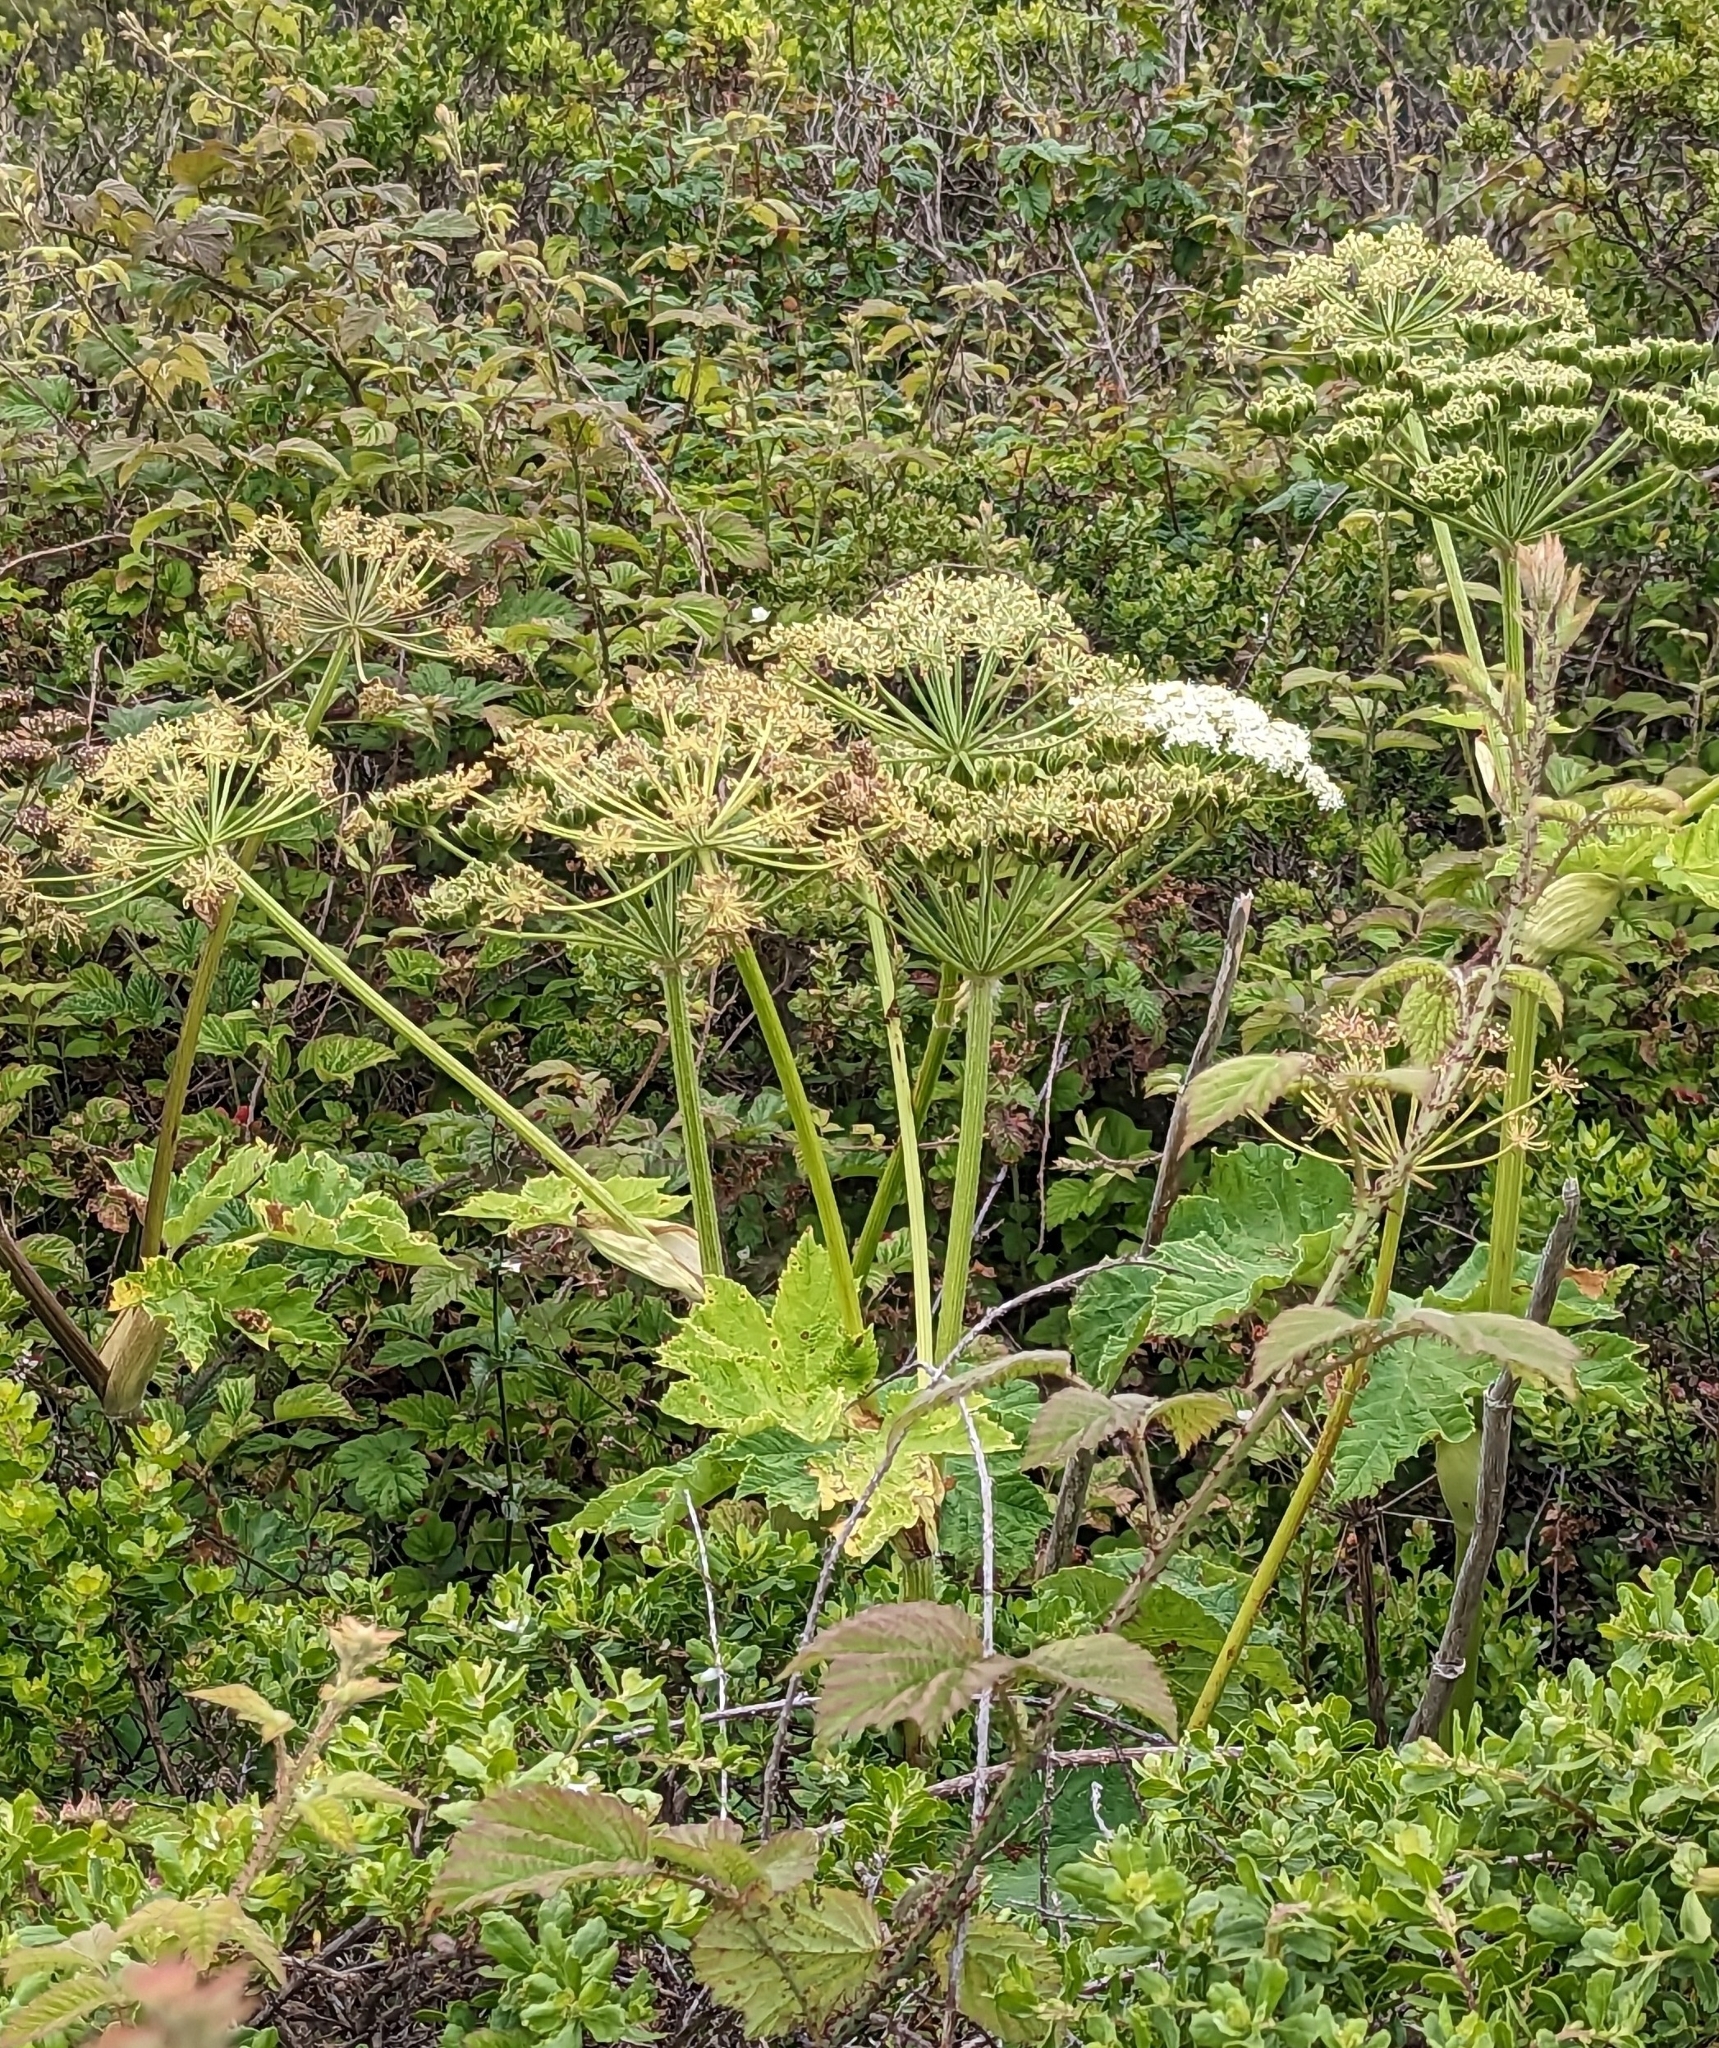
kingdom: Plantae
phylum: Tracheophyta
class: Magnoliopsida
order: Apiales
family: Apiaceae
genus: Heracleum
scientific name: Heracleum maximum
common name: American cow parsnip
